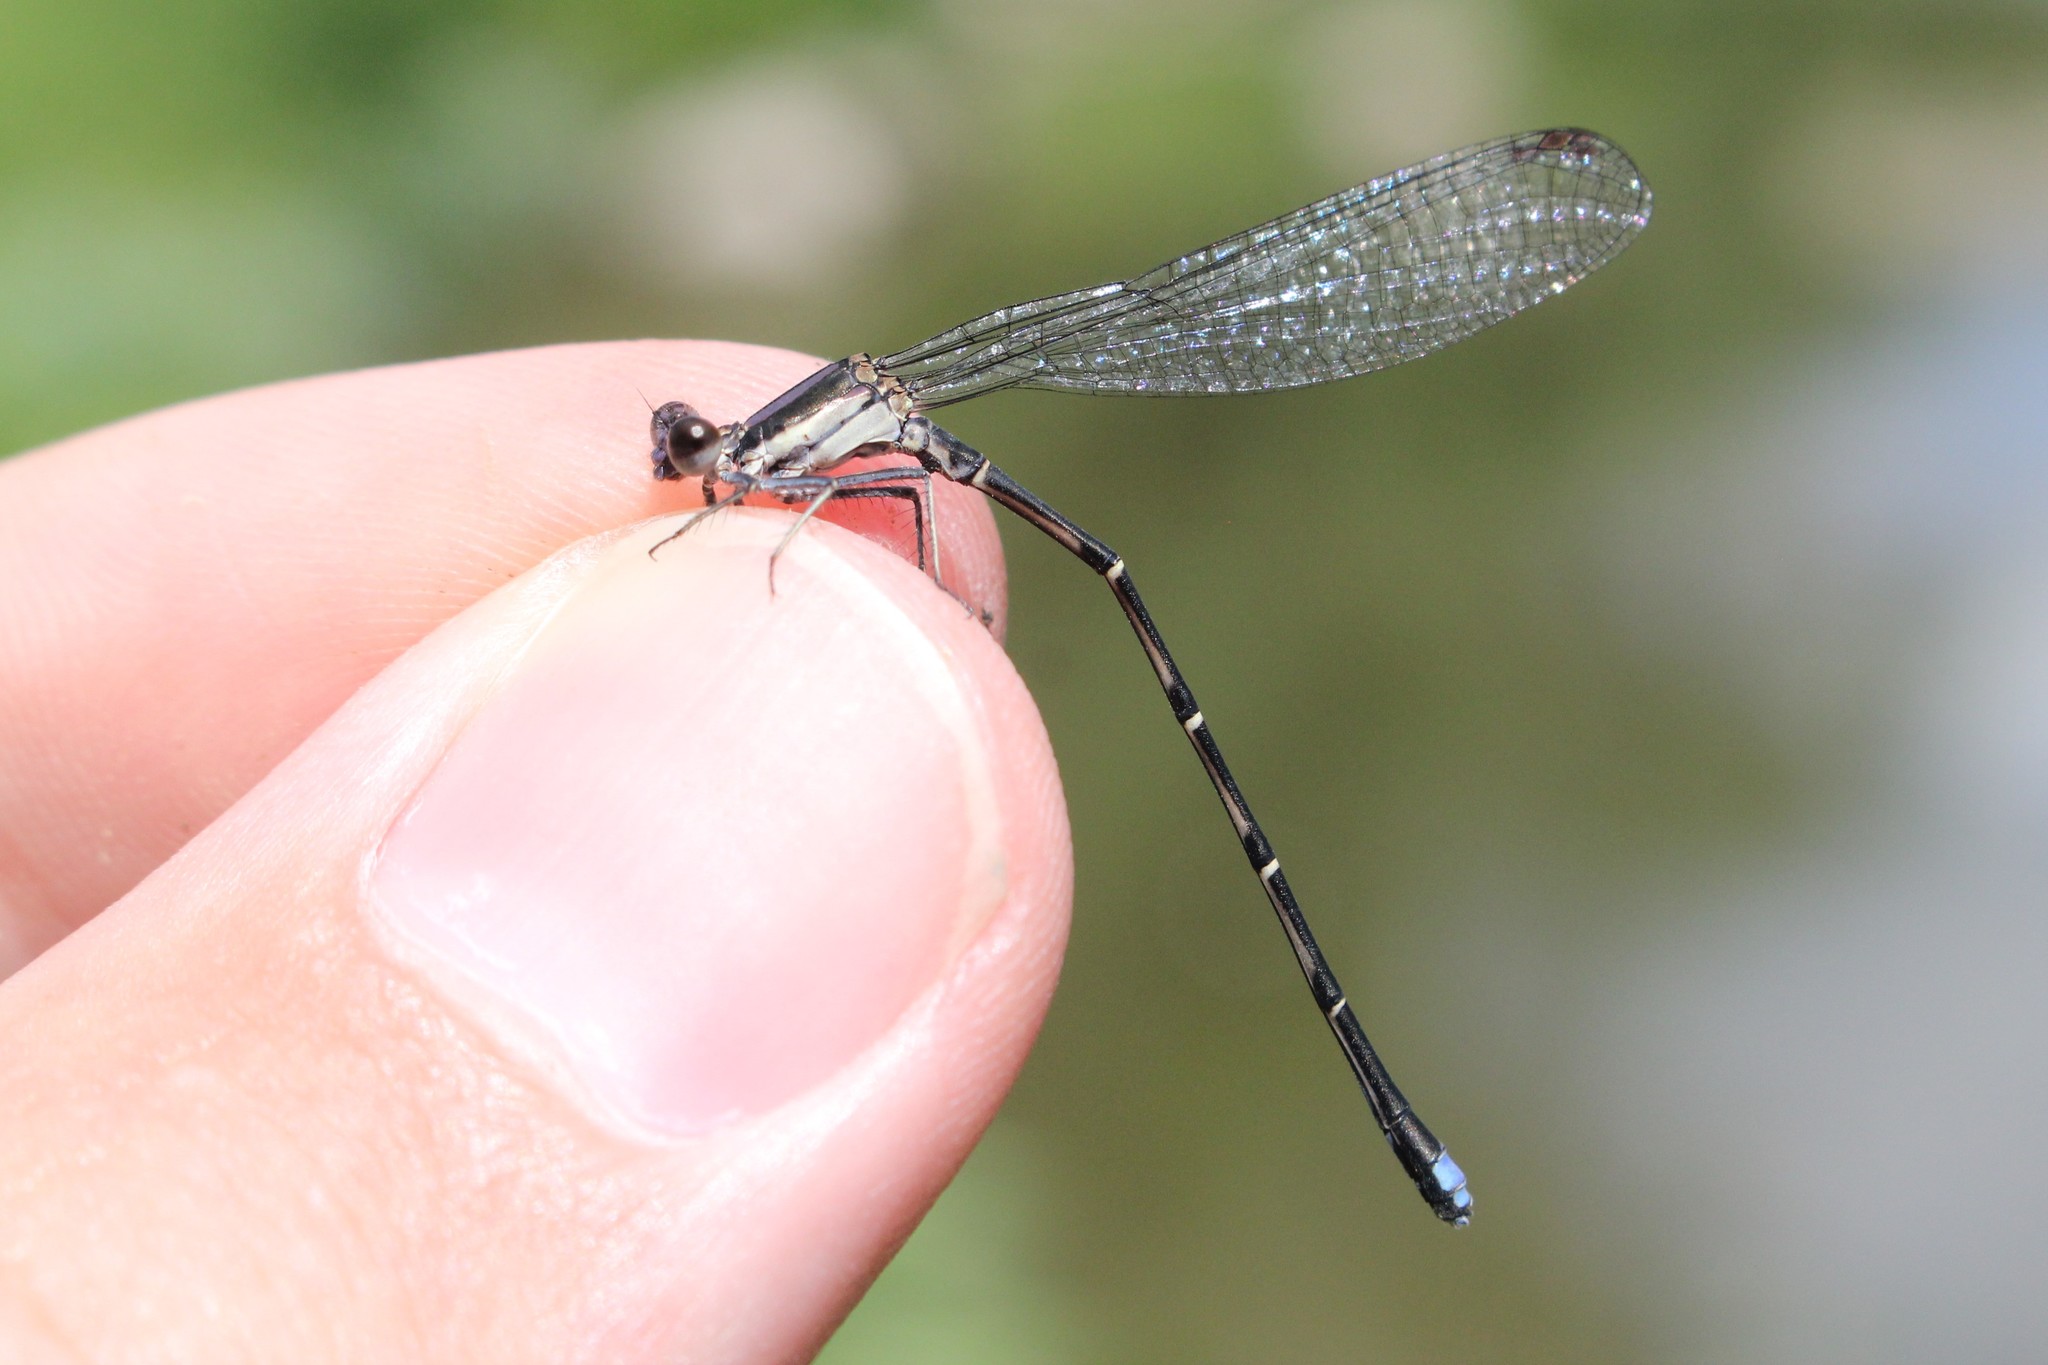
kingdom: Animalia
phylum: Arthropoda
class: Insecta
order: Odonata
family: Coenagrionidae
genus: Argia
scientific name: Argia tibialis
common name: Blue-tipped dancer
